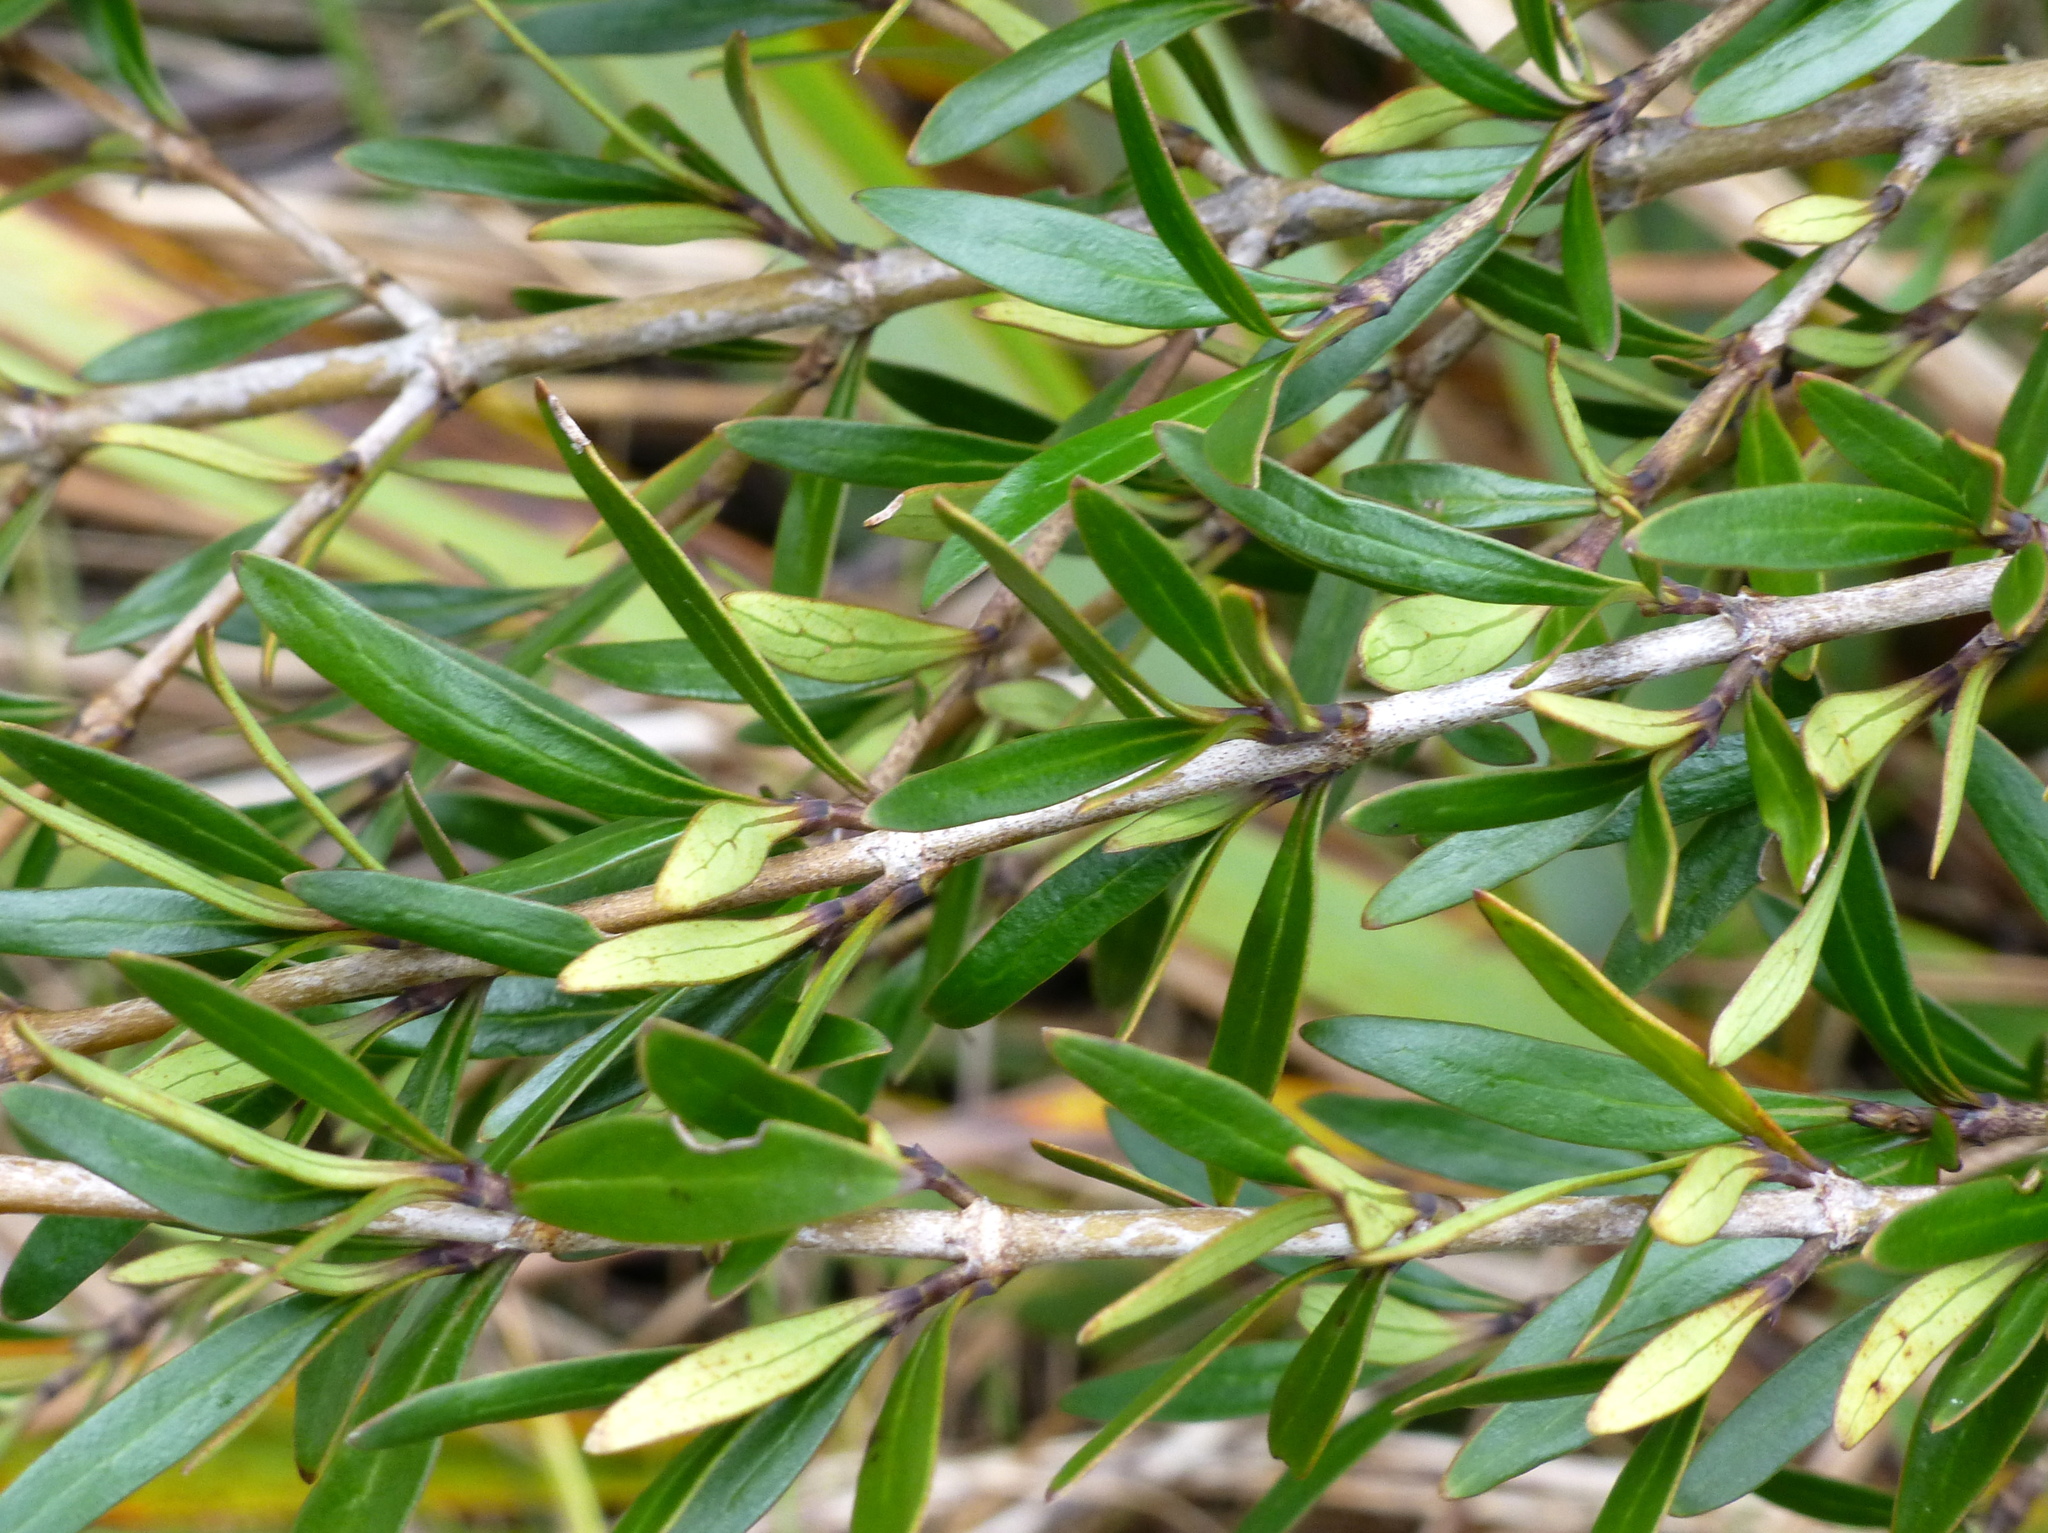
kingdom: Plantae
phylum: Tracheophyta
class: Magnoliopsida
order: Gentianales
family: Rubiaceae
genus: Coprosma
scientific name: Coprosma cunninghamii
